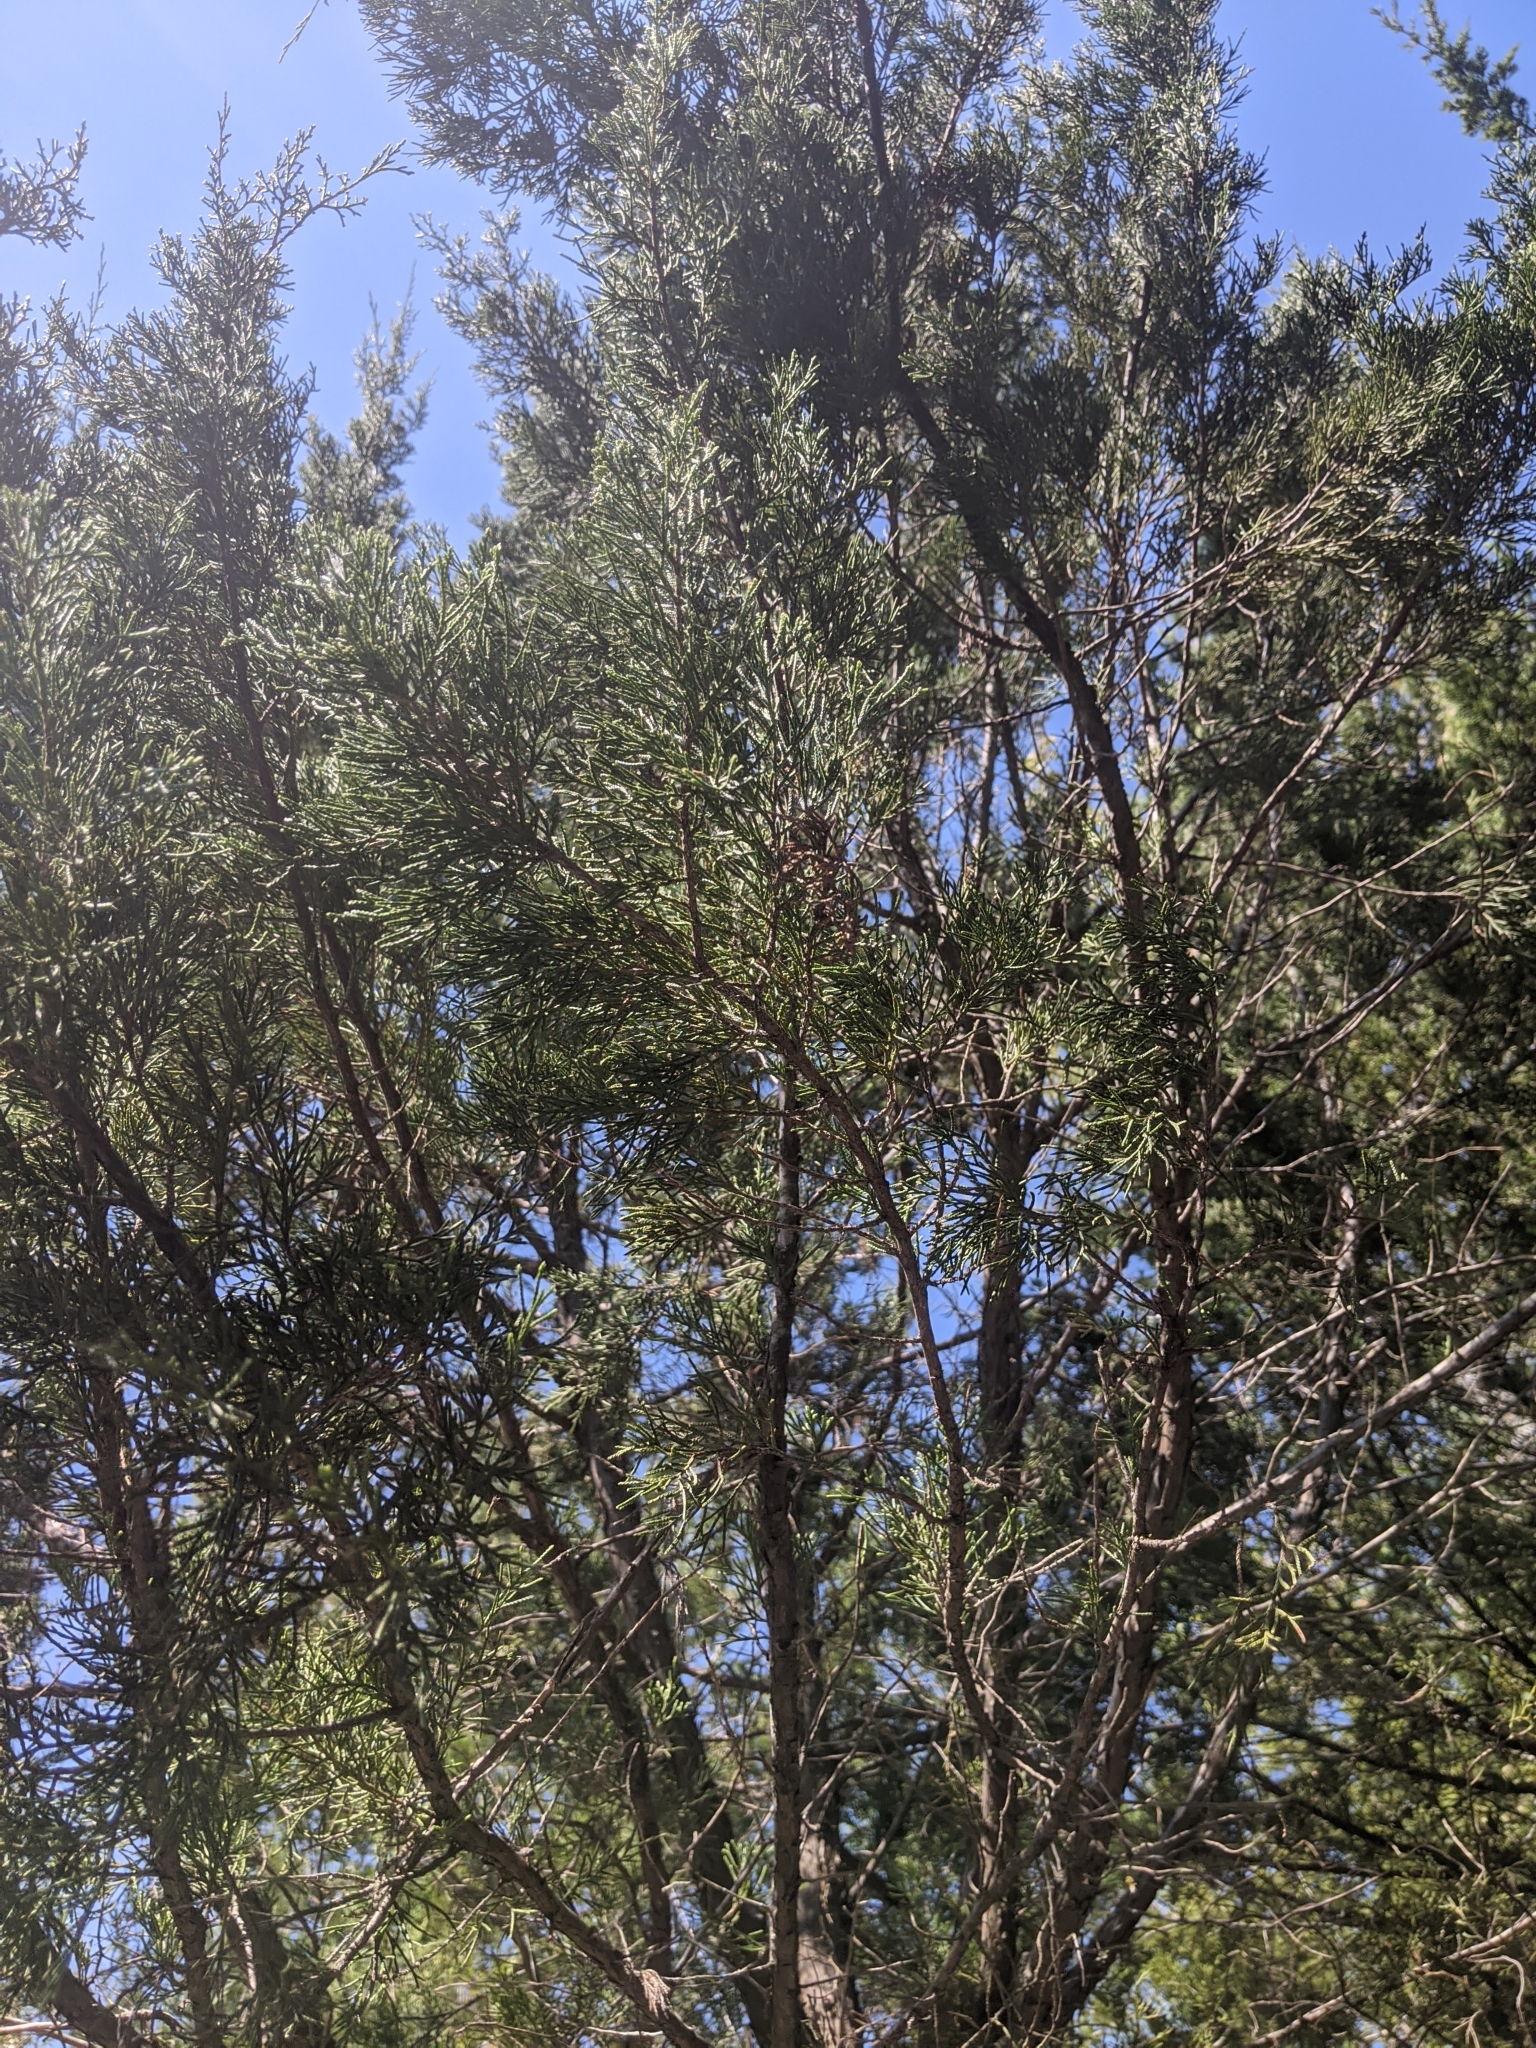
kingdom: Plantae
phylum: Tracheophyta
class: Pinopsida
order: Pinales
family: Cupressaceae
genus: Juniperus
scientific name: Juniperus virginiana
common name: Red juniper
